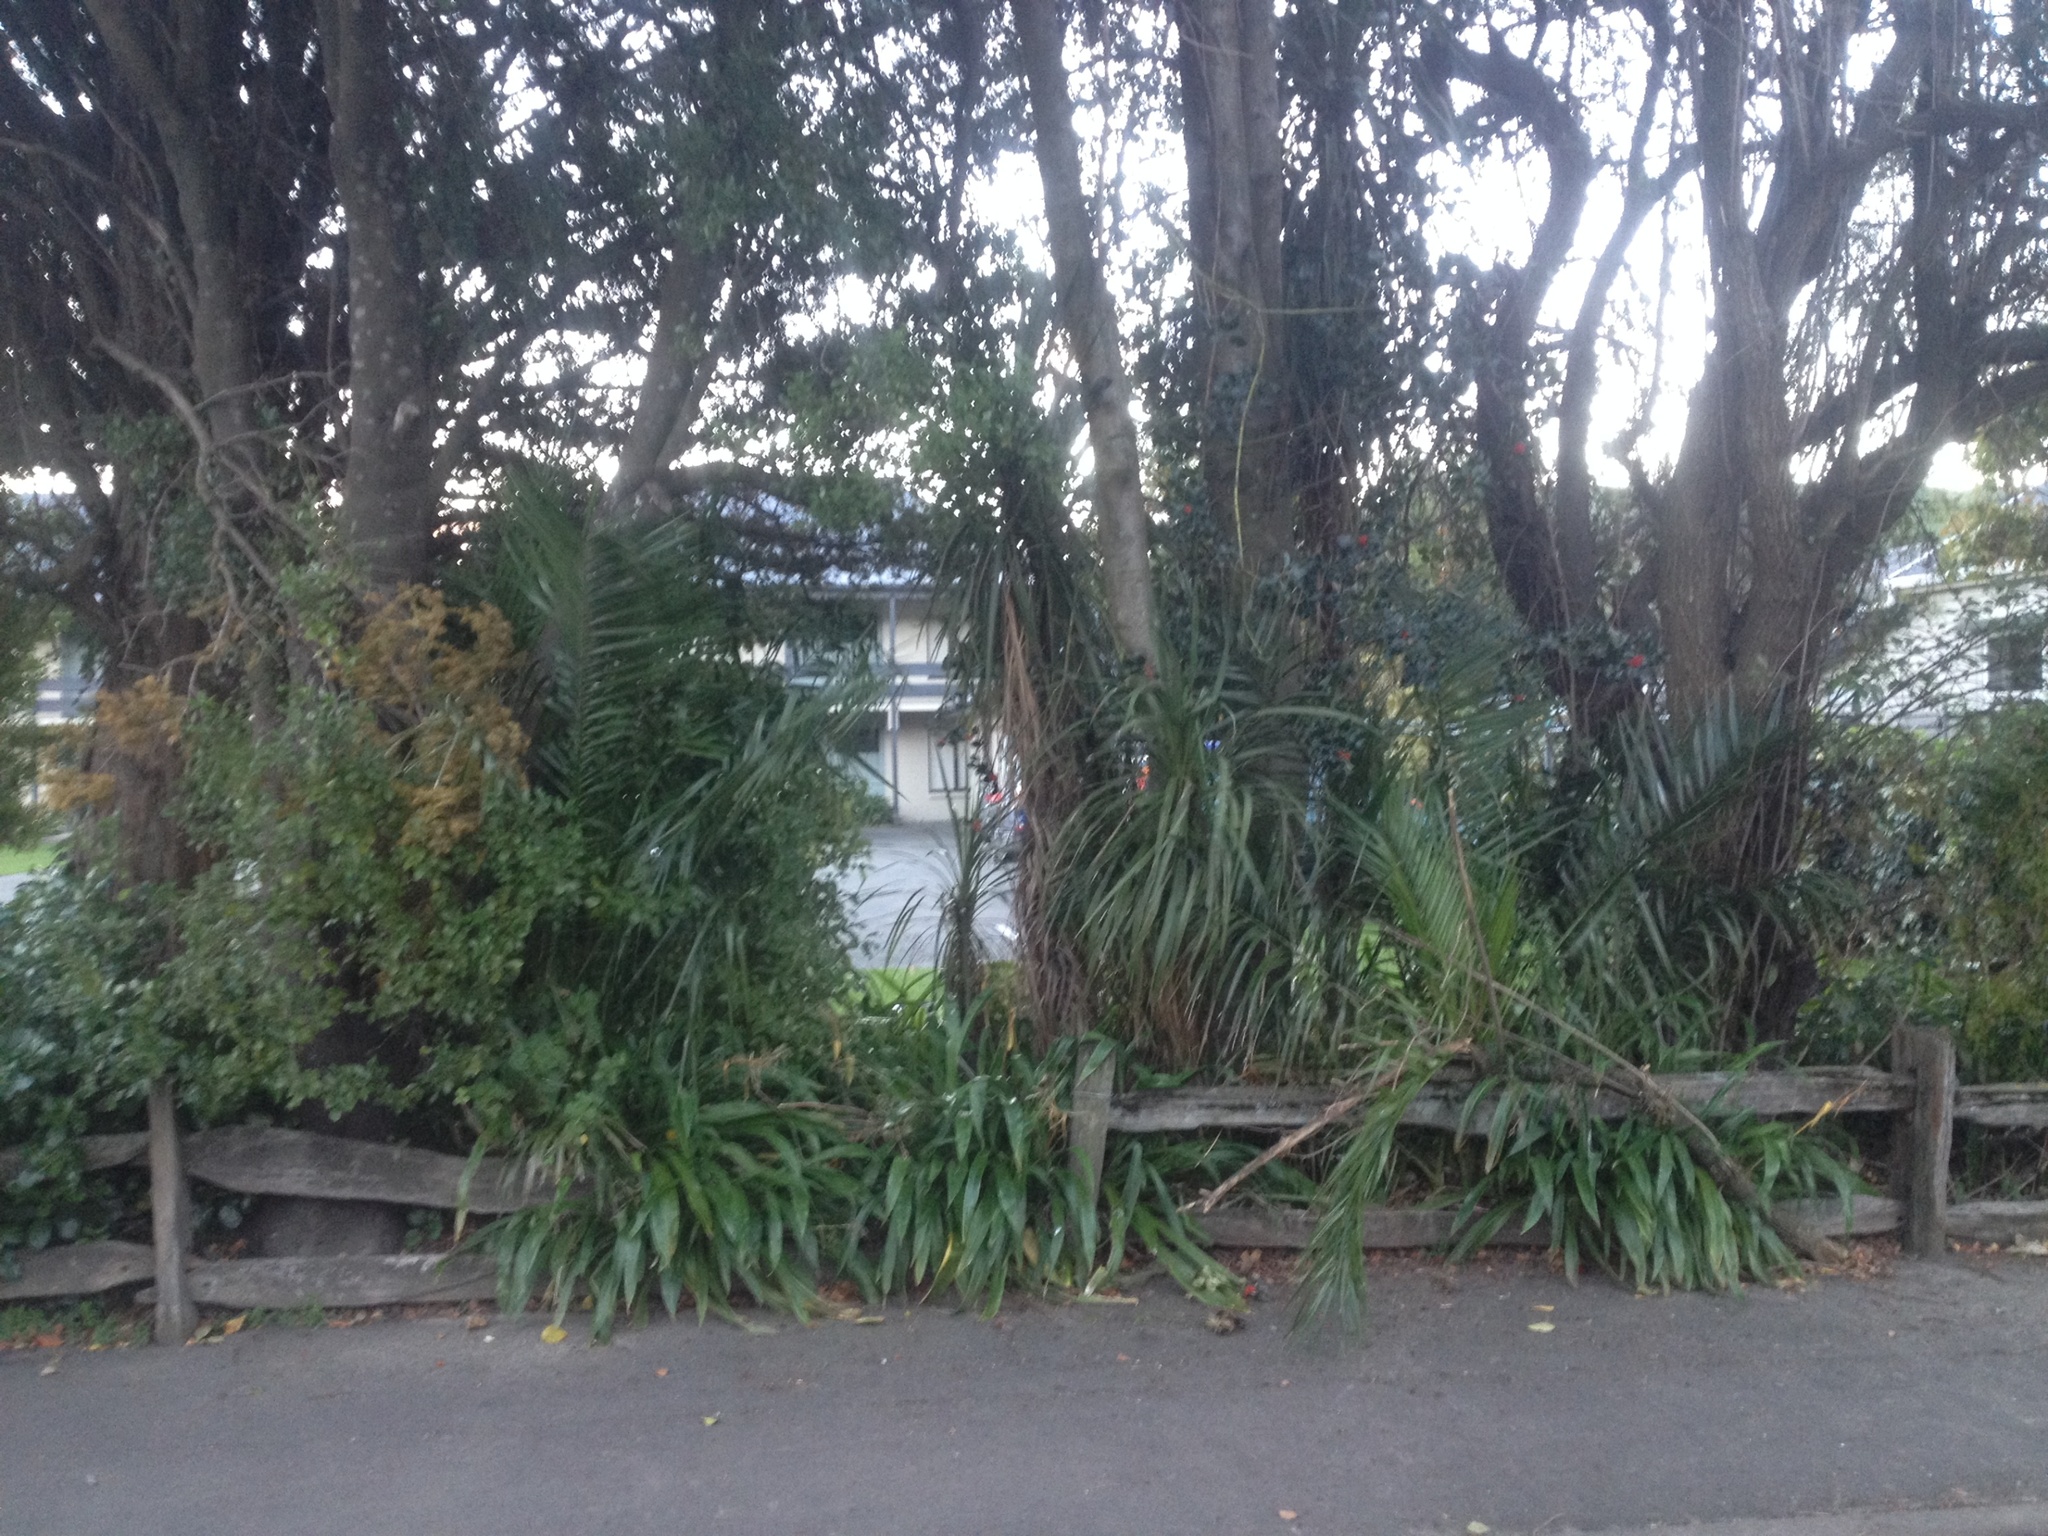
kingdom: Plantae
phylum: Tracheophyta
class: Liliopsida
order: Arecales
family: Arecaceae
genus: Phoenix
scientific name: Phoenix canariensis
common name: Canary island date palm
